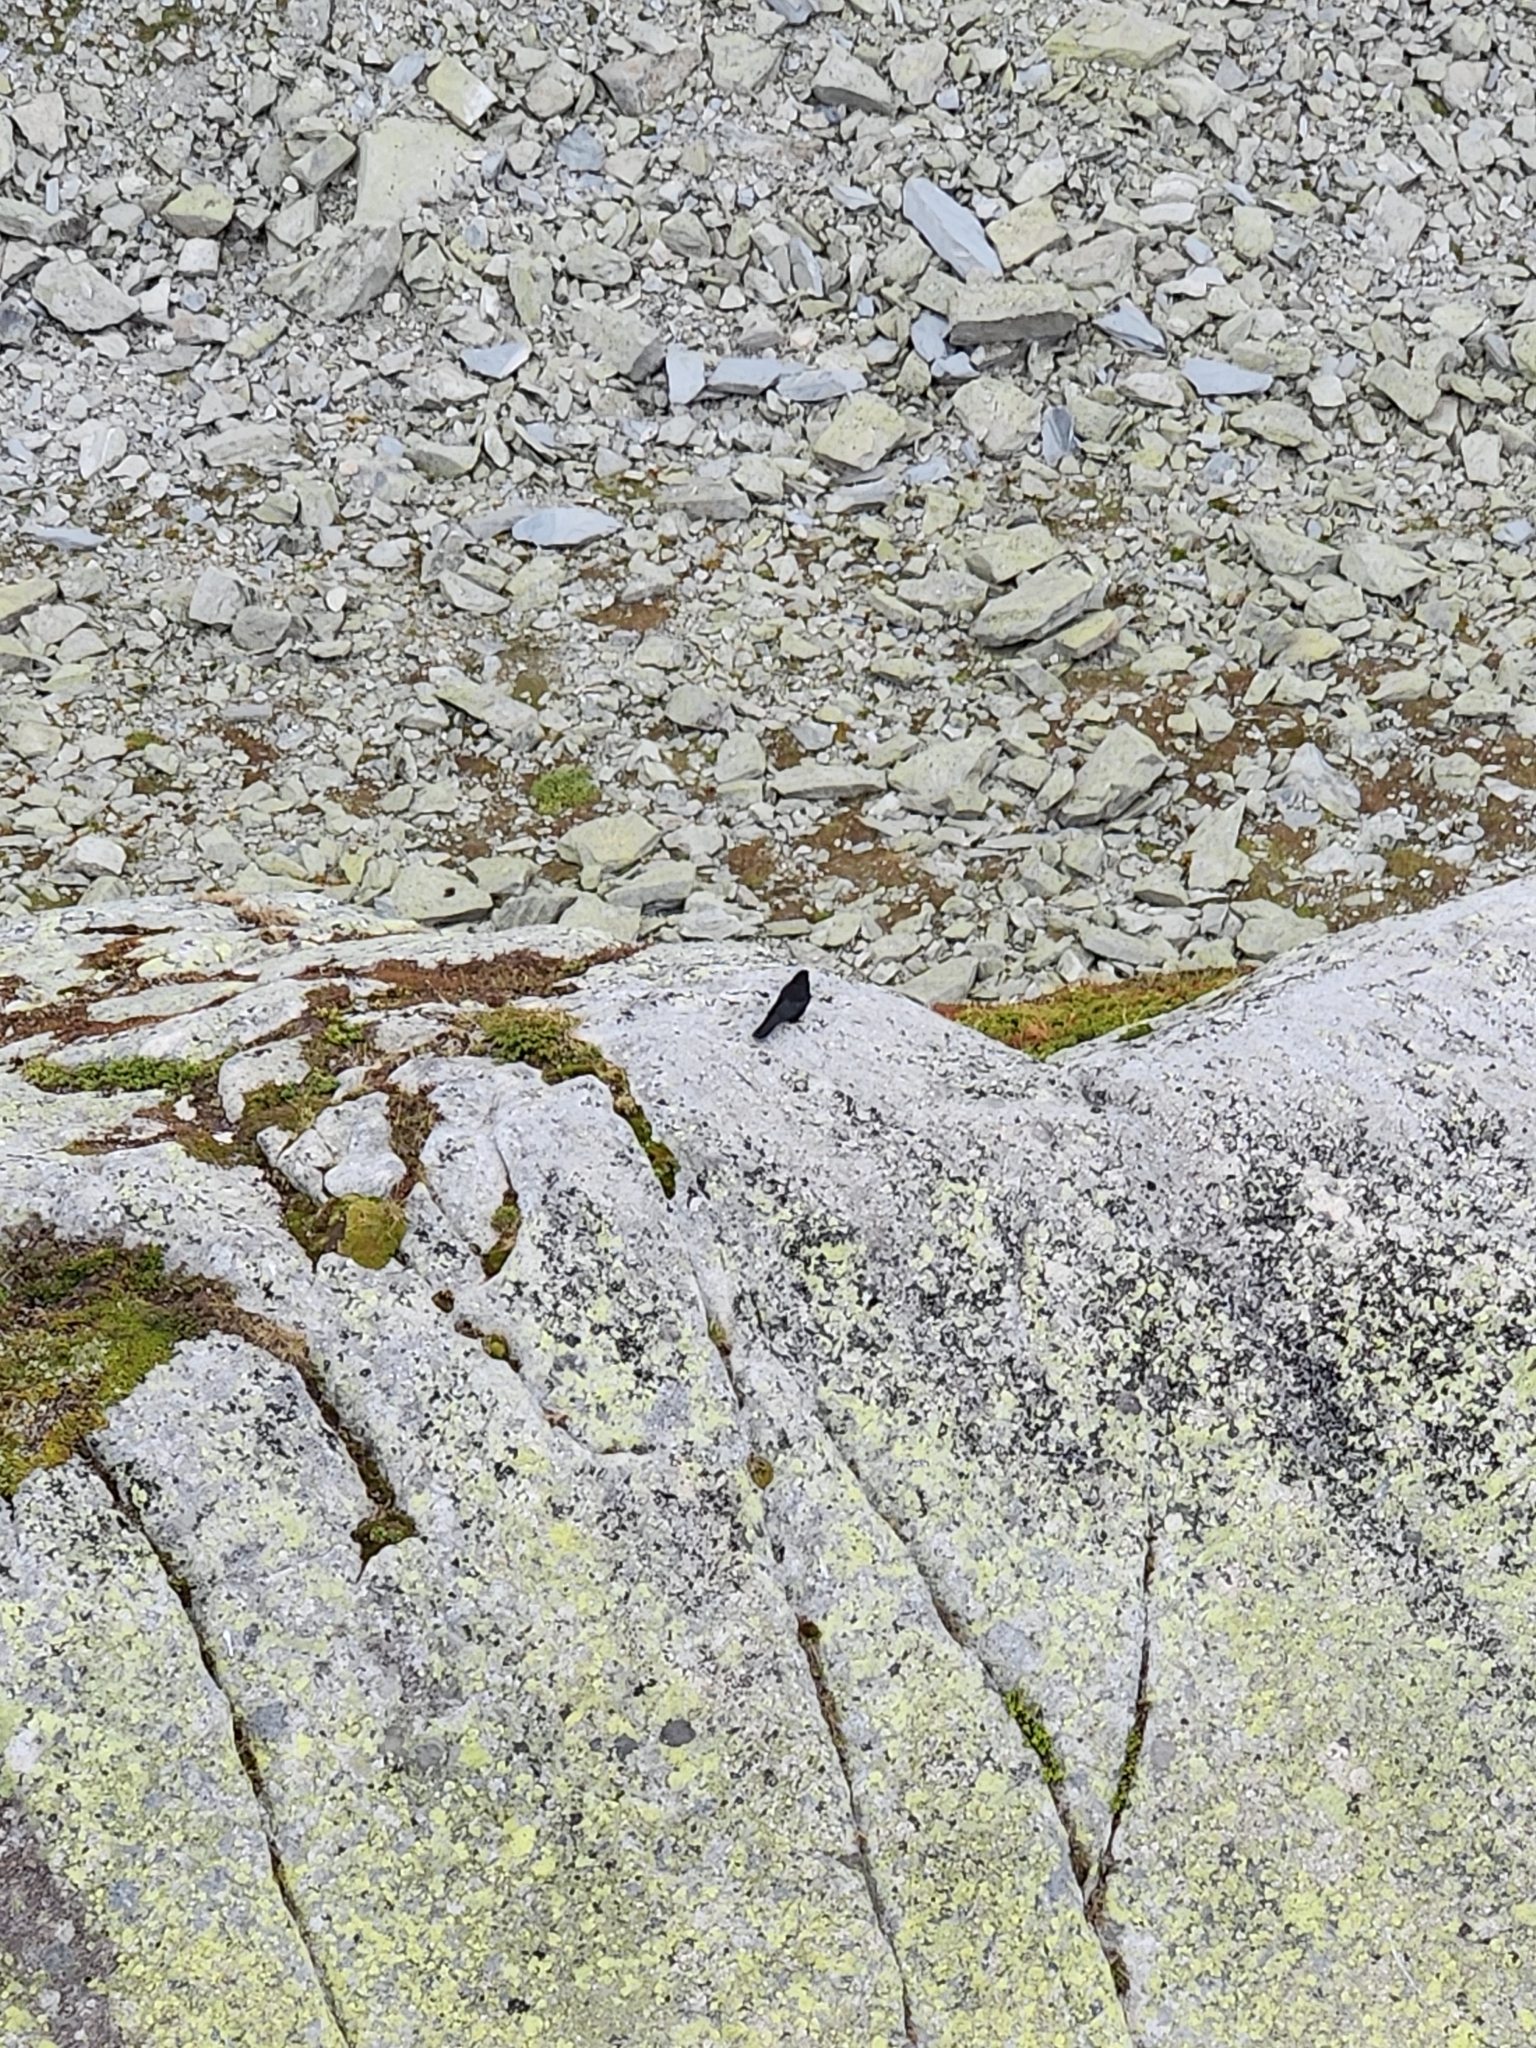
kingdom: Animalia
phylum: Chordata
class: Aves
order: Passeriformes
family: Corvidae
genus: Pyrrhocorax
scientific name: Pyrrhocorax graculus
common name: Alpine chough
